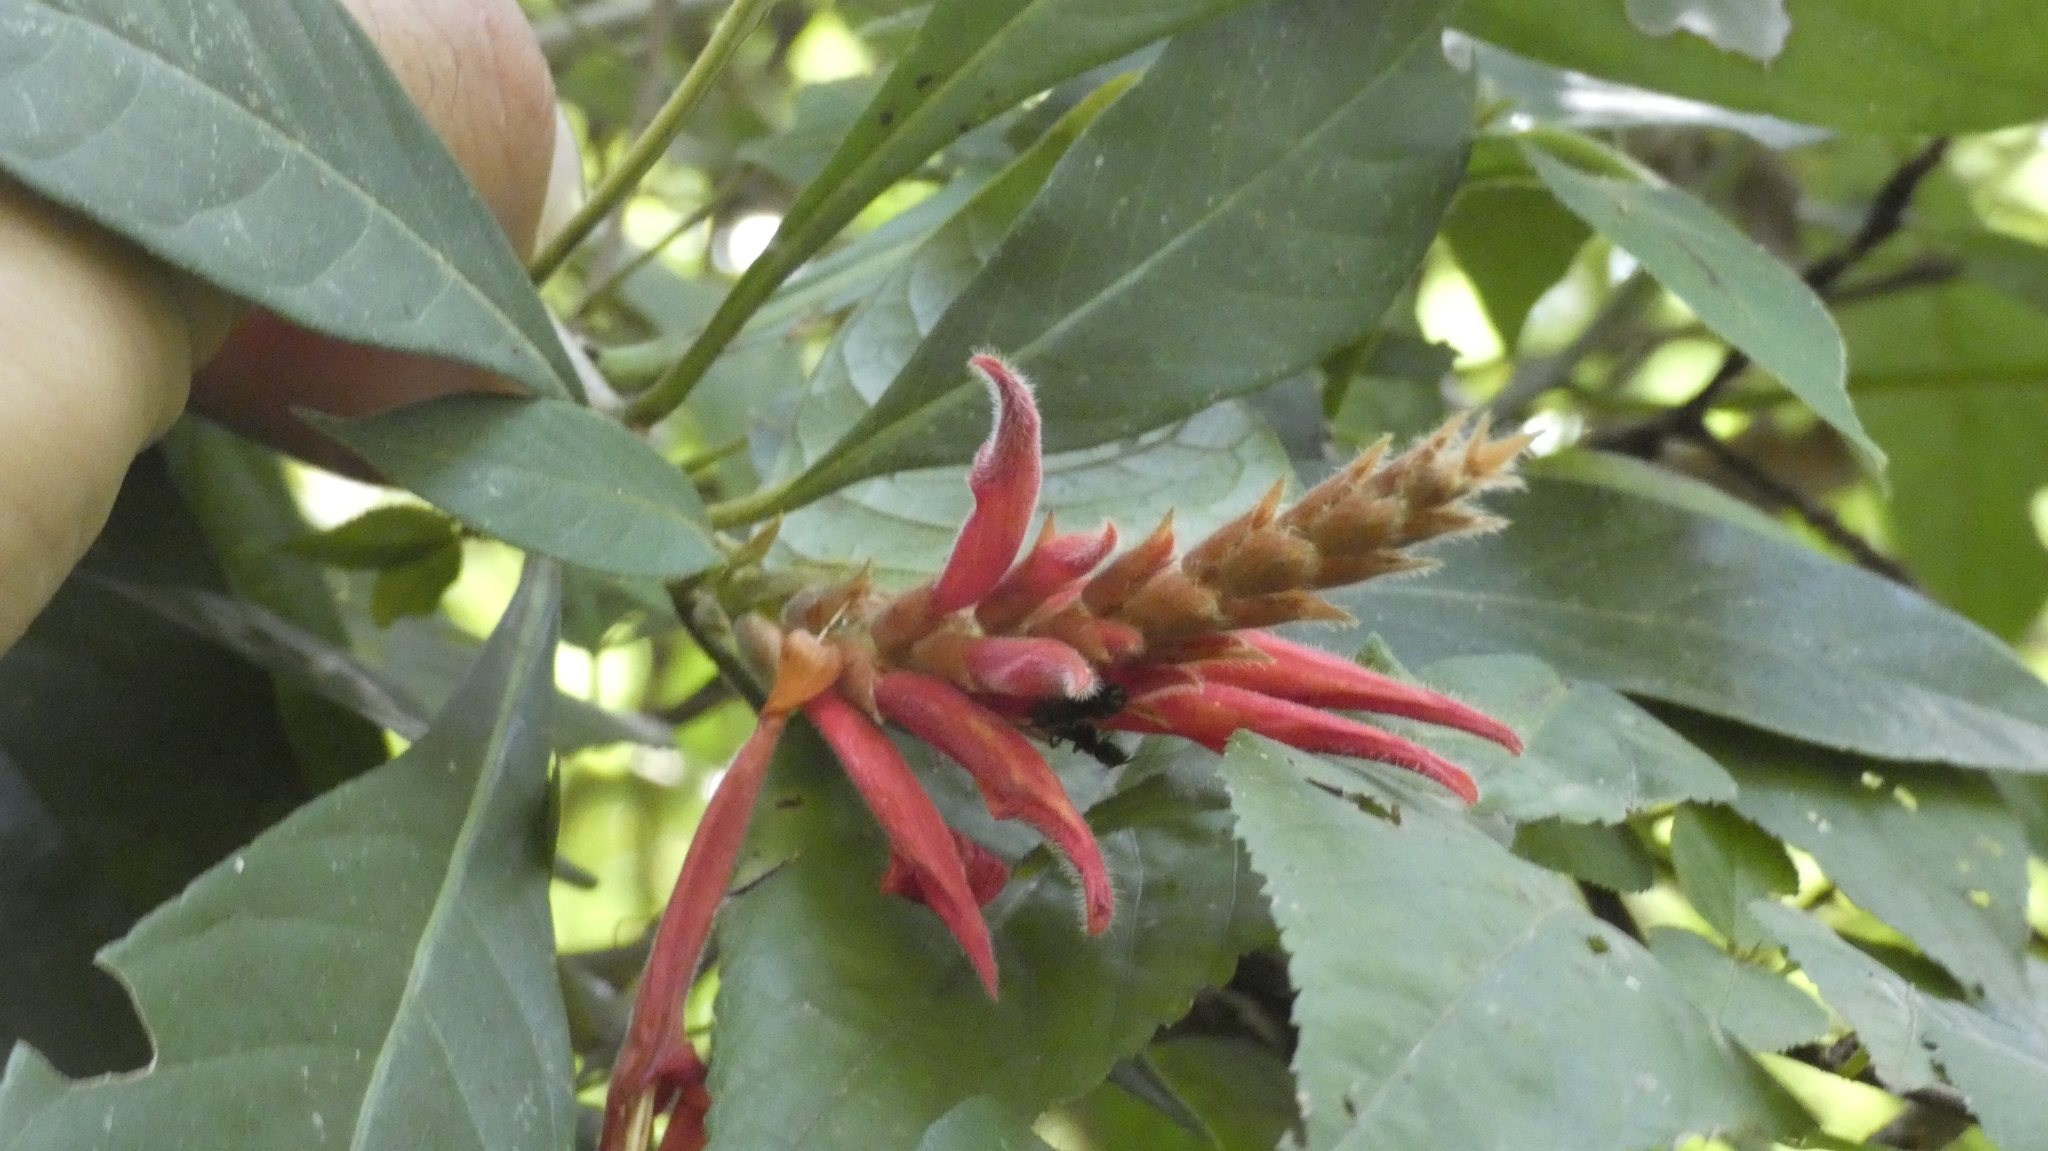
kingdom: Plantae
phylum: Tracheophyta
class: Magnoliopsida
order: Lamiales
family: Acanthaceae
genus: Aphelandra
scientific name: Aphelandra scabra
